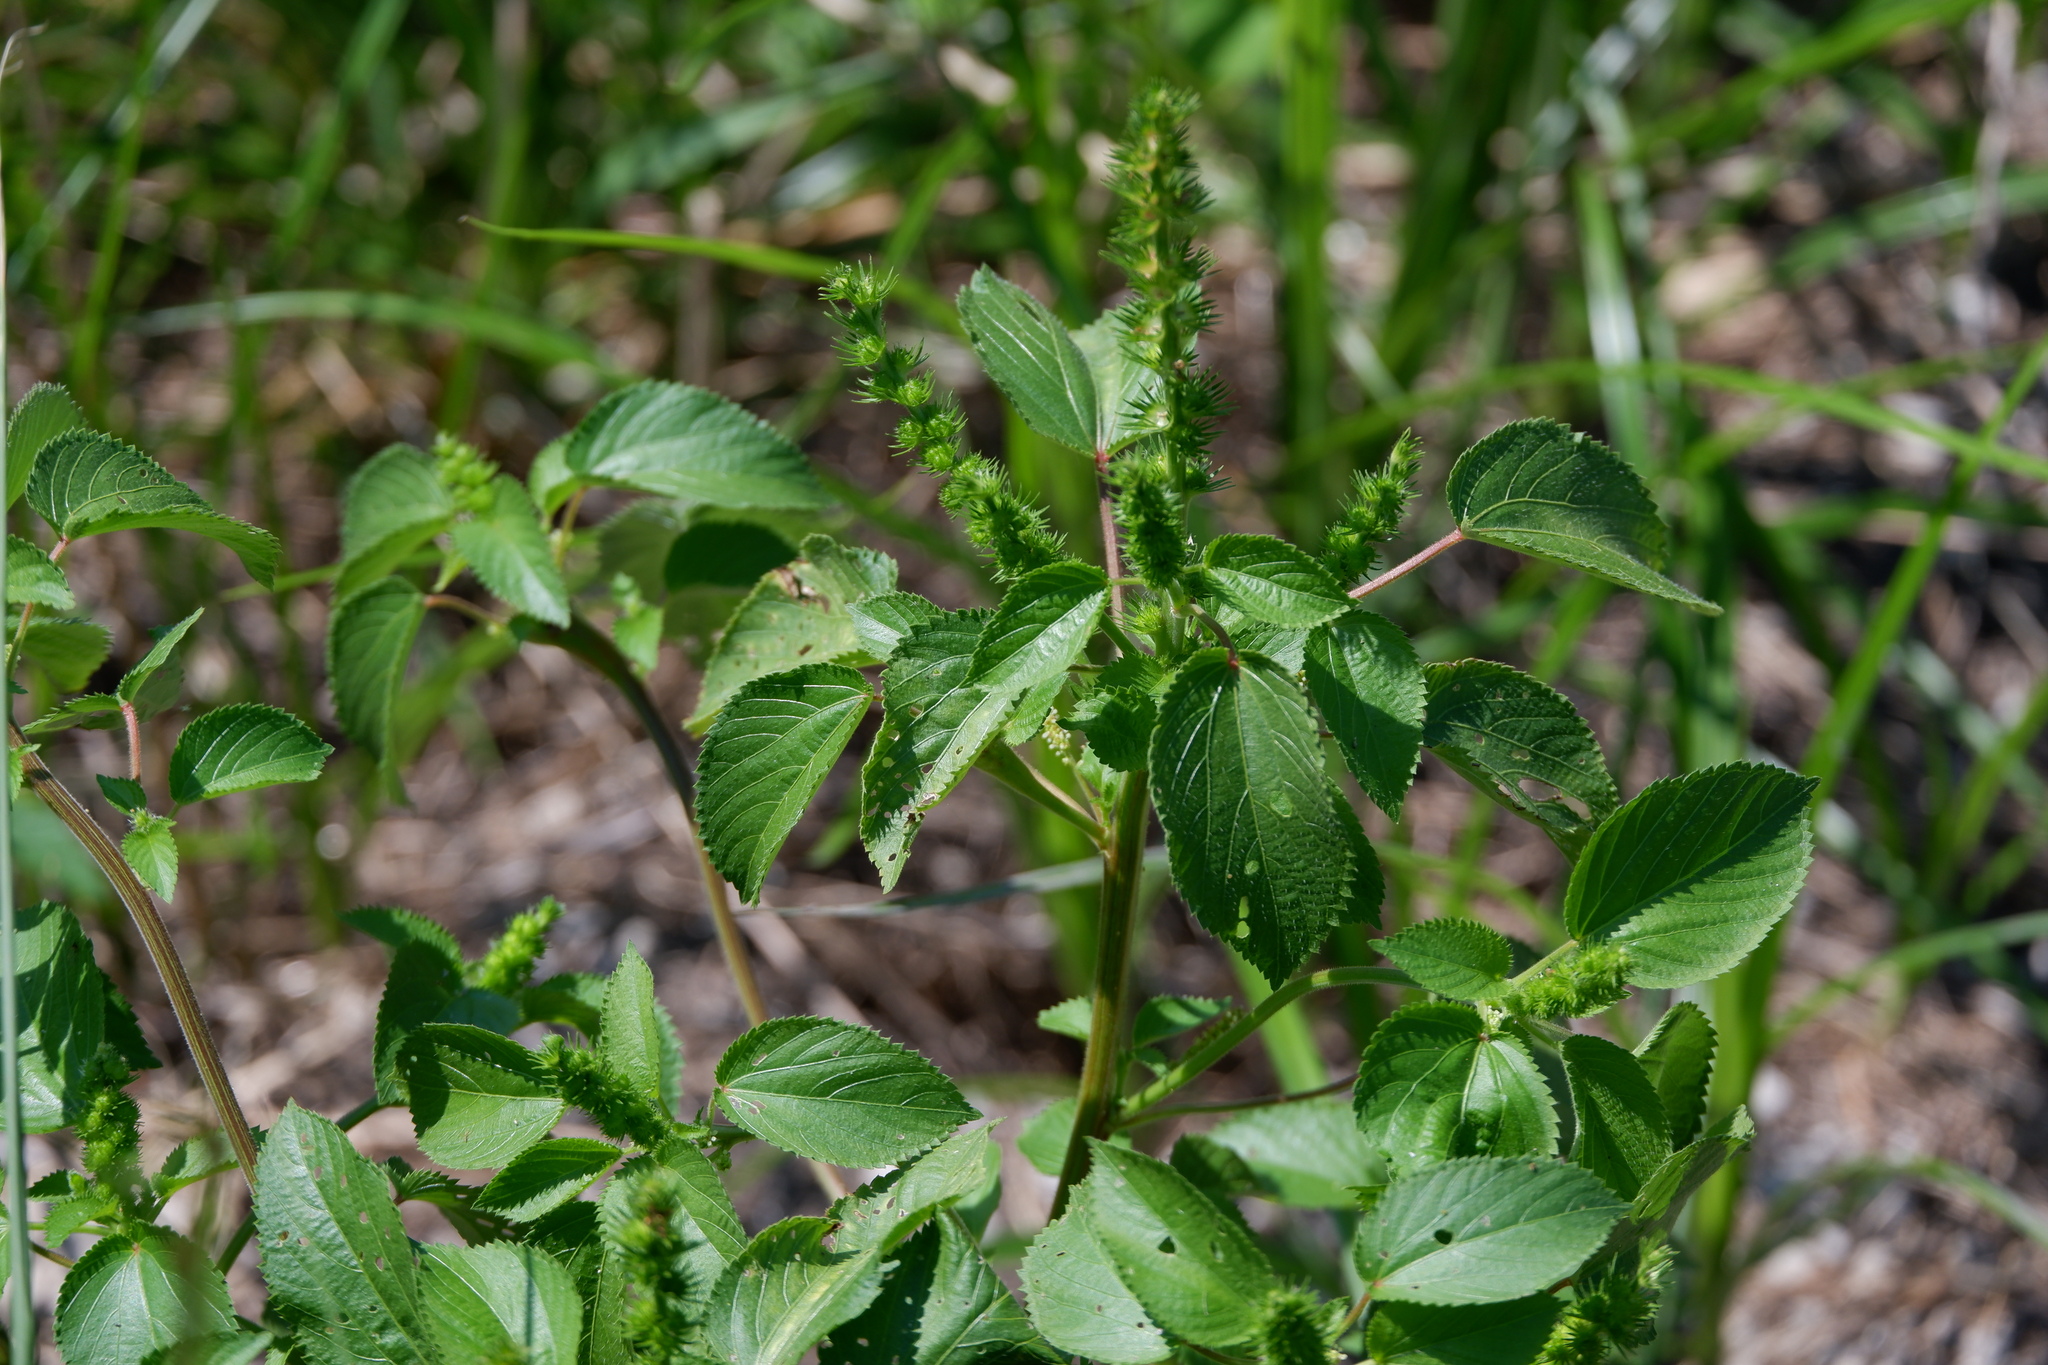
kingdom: Plantae
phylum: Tracheophyta
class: Magnoliopsida
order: Malpighiales
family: Euphorbiaceae
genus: Acalypha
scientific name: Acalypha ostryifolia
